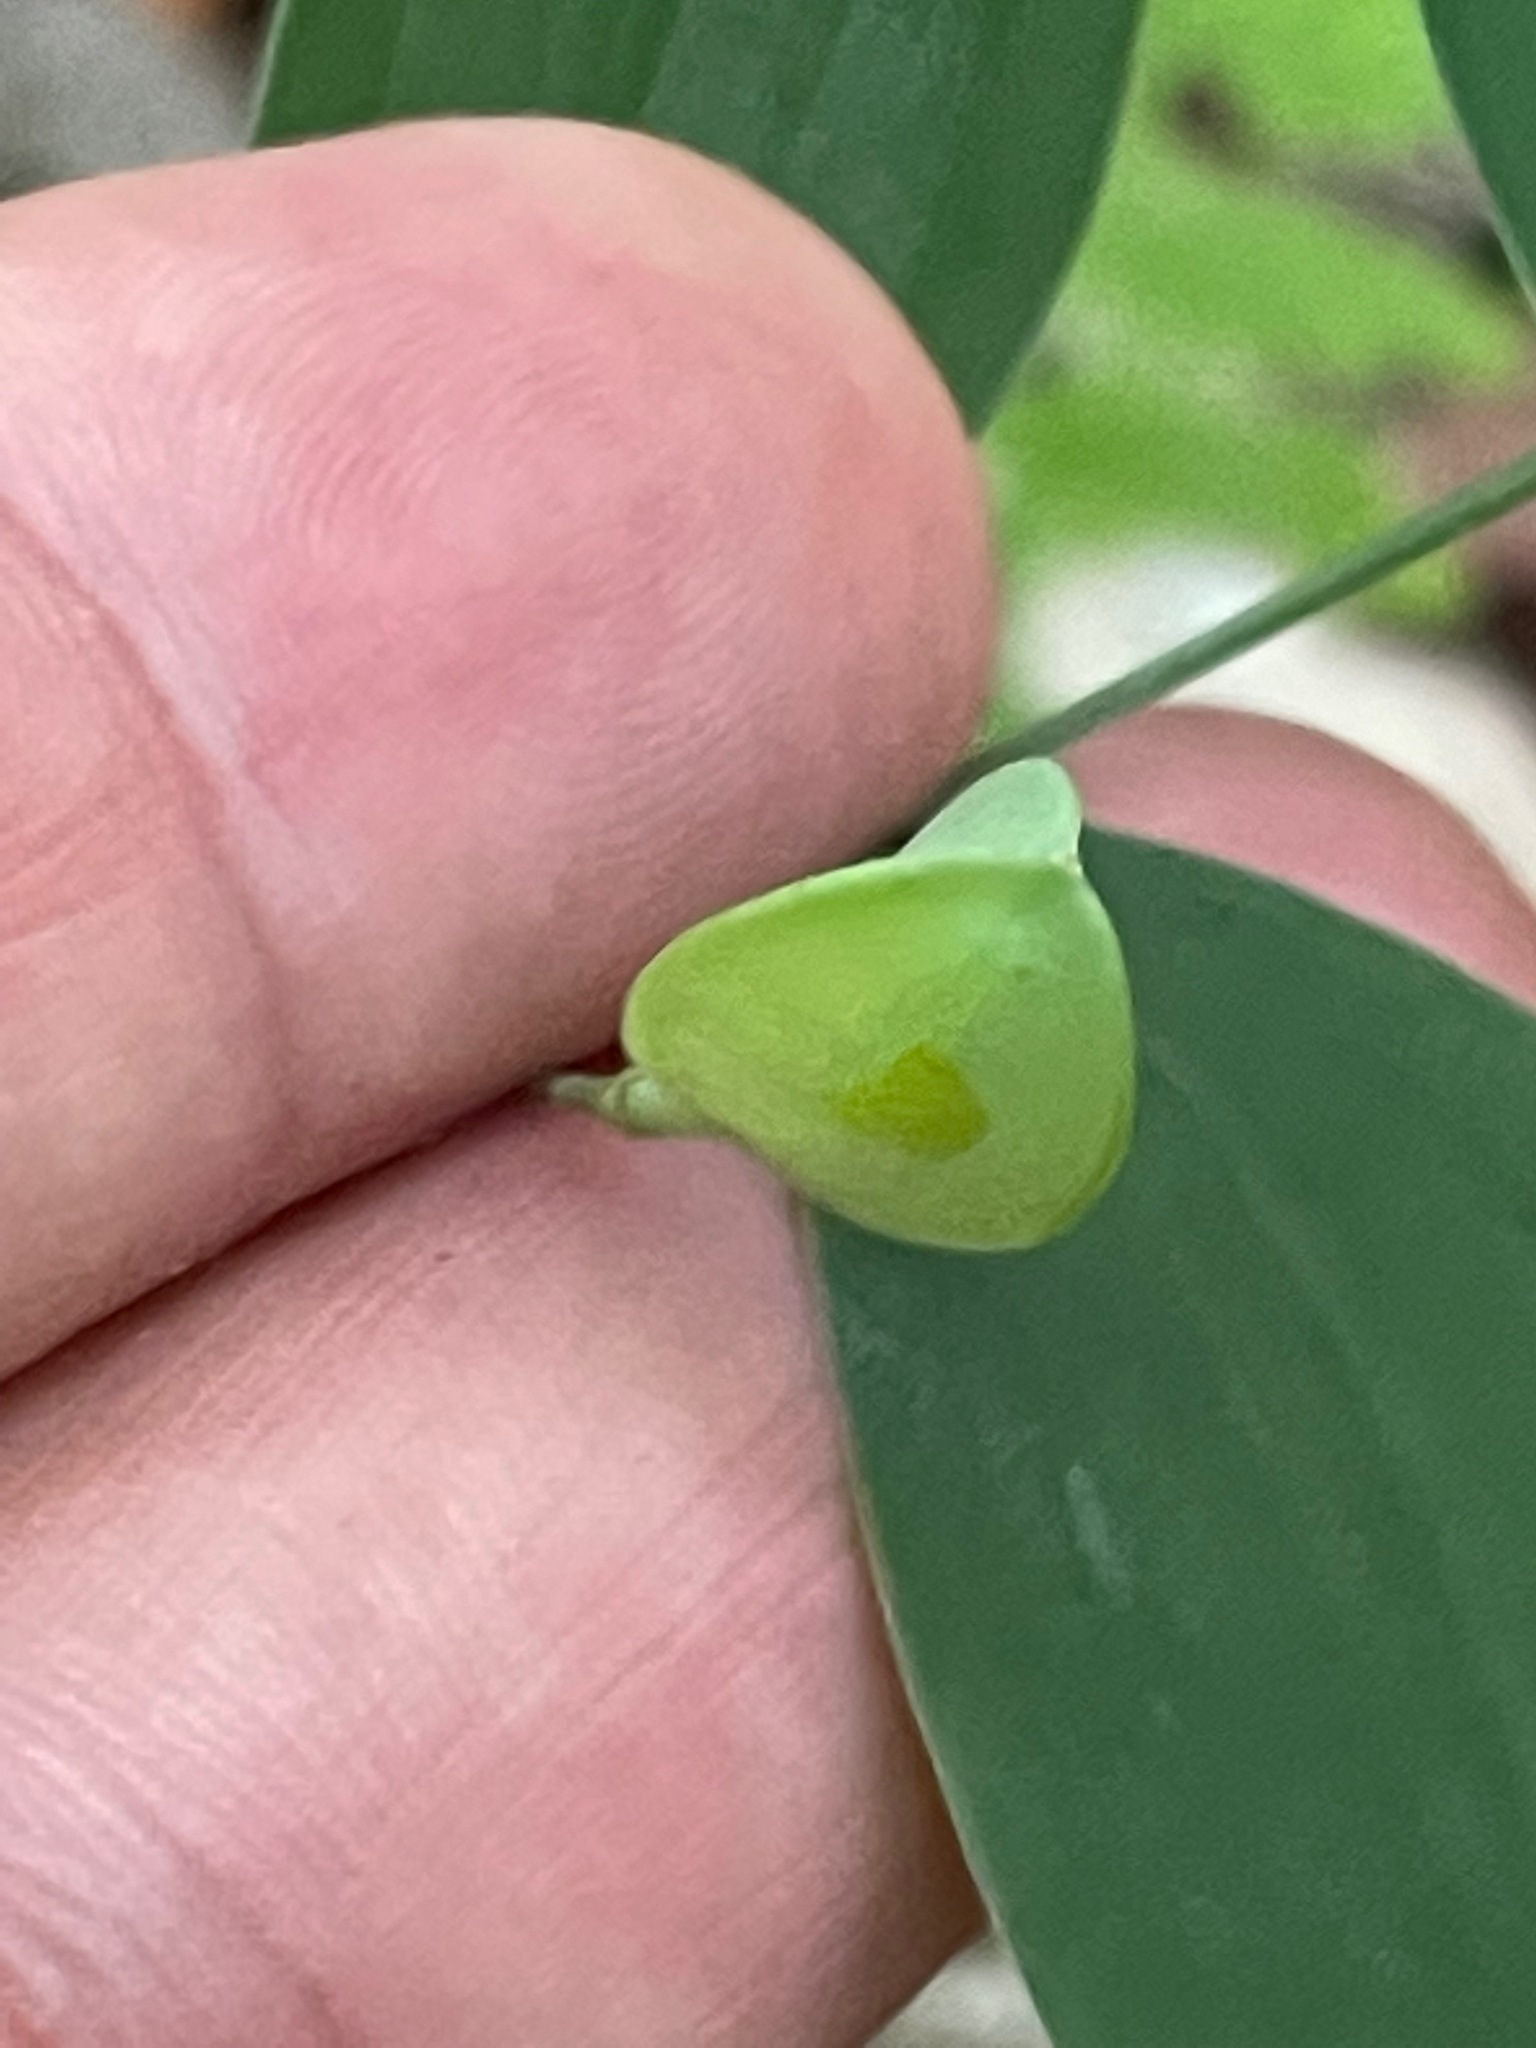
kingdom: Plantae
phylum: Tracheophyta
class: Liliopsida
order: Liliales
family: Colchicaceae
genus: Uvularia
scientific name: Uvularia sessilifolia
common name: Straw-lily
